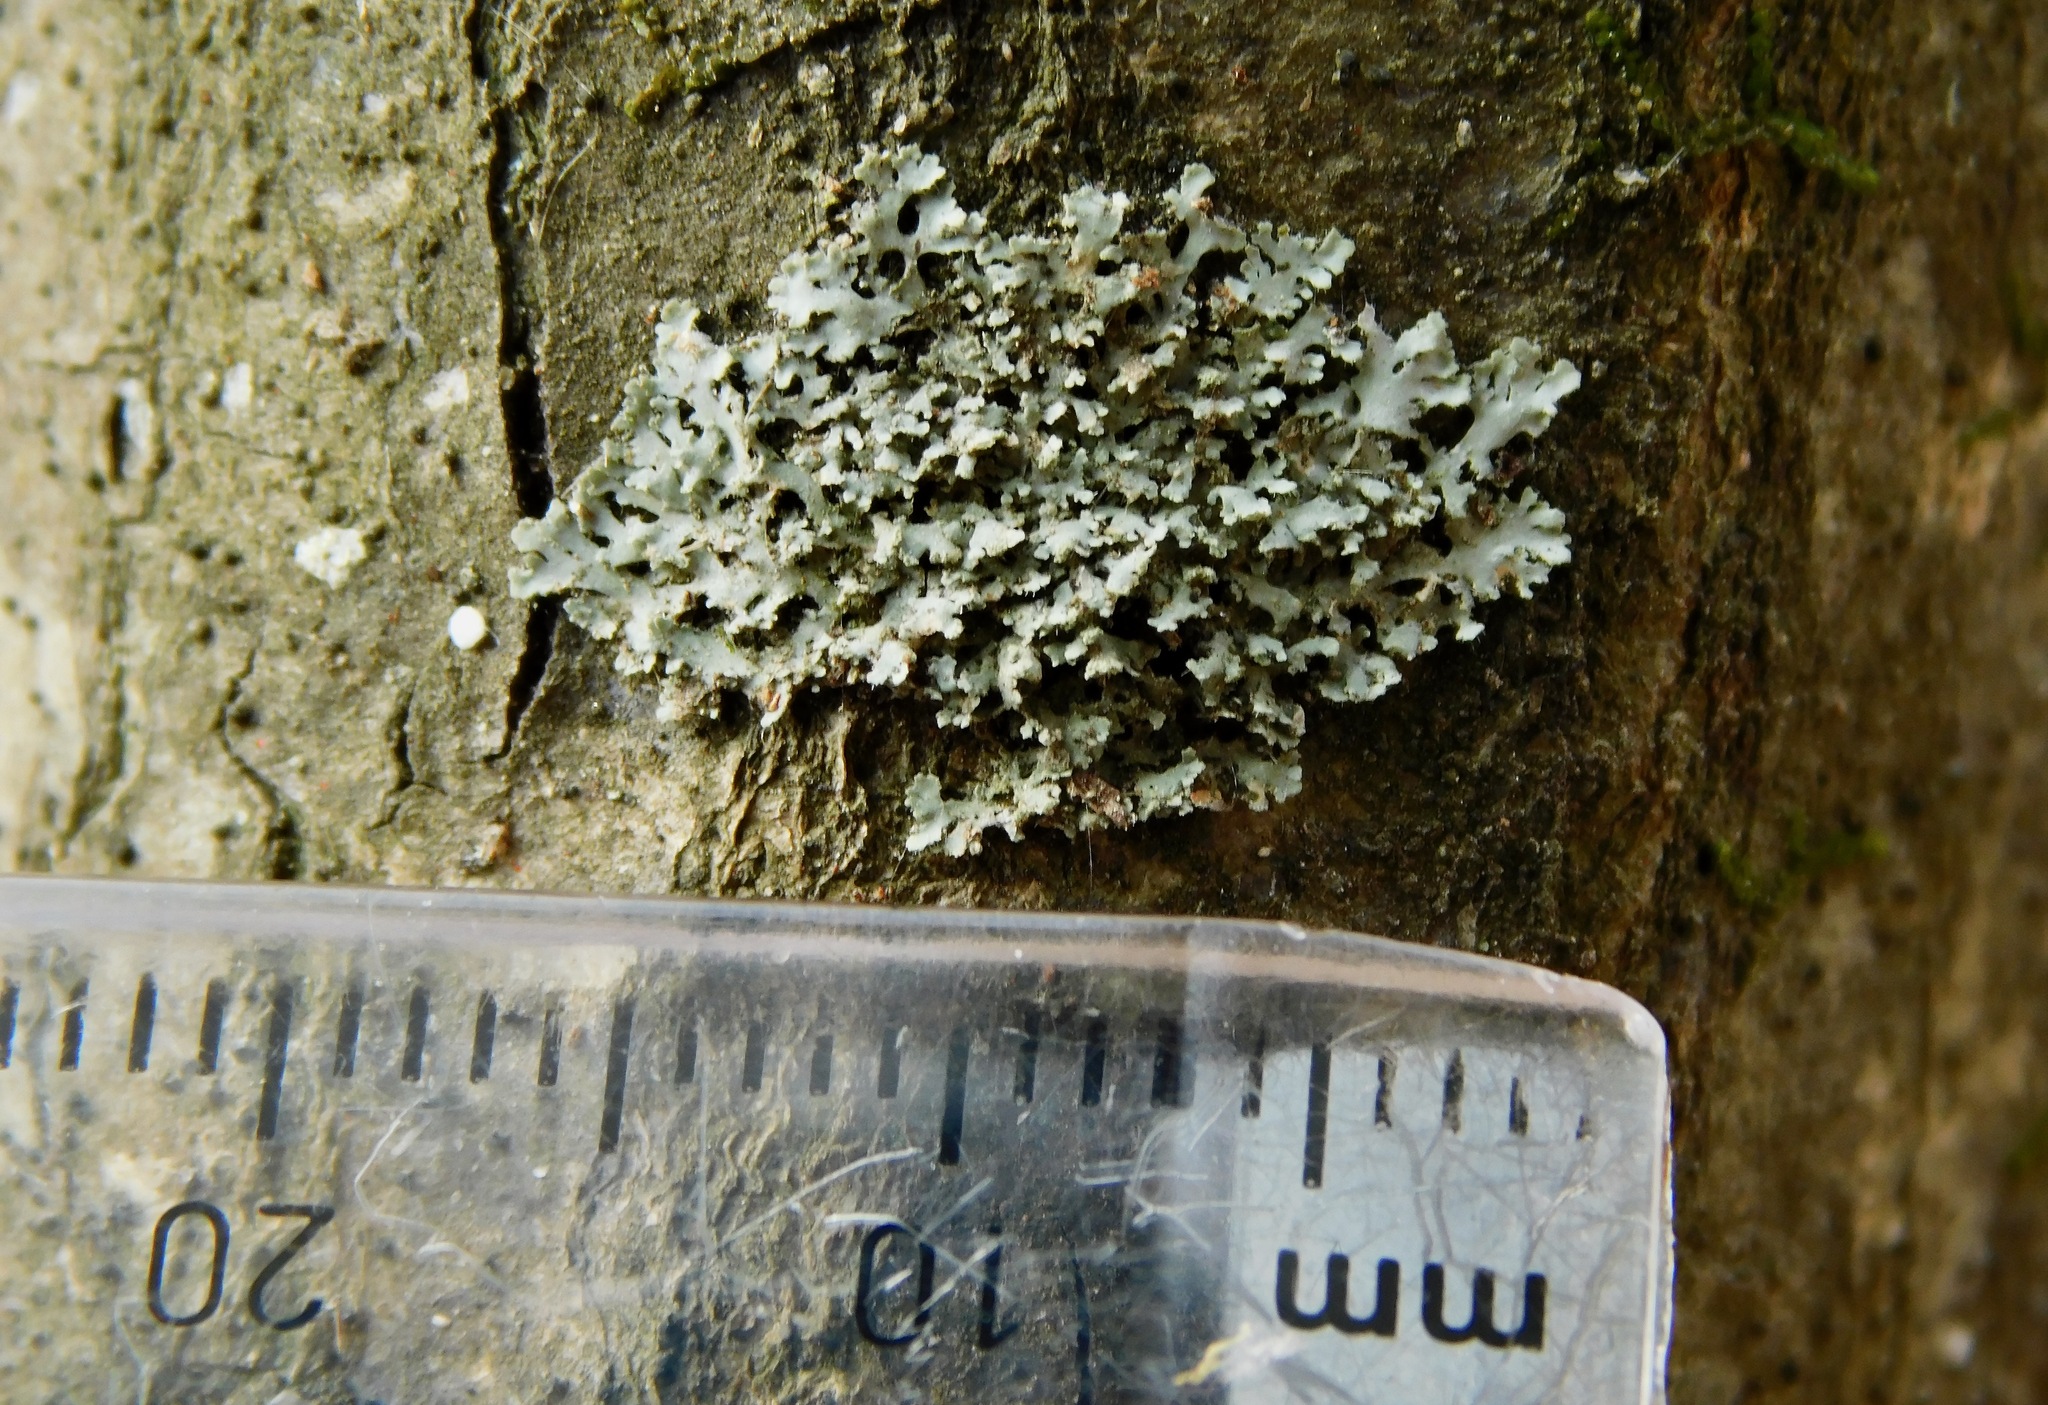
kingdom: Fungi
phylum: Ascomycota
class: Lecanoromycetes
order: Caliciales
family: Physciaceae
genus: Physciella
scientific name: Physciella chloantha
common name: Cryptic rosette lichen
